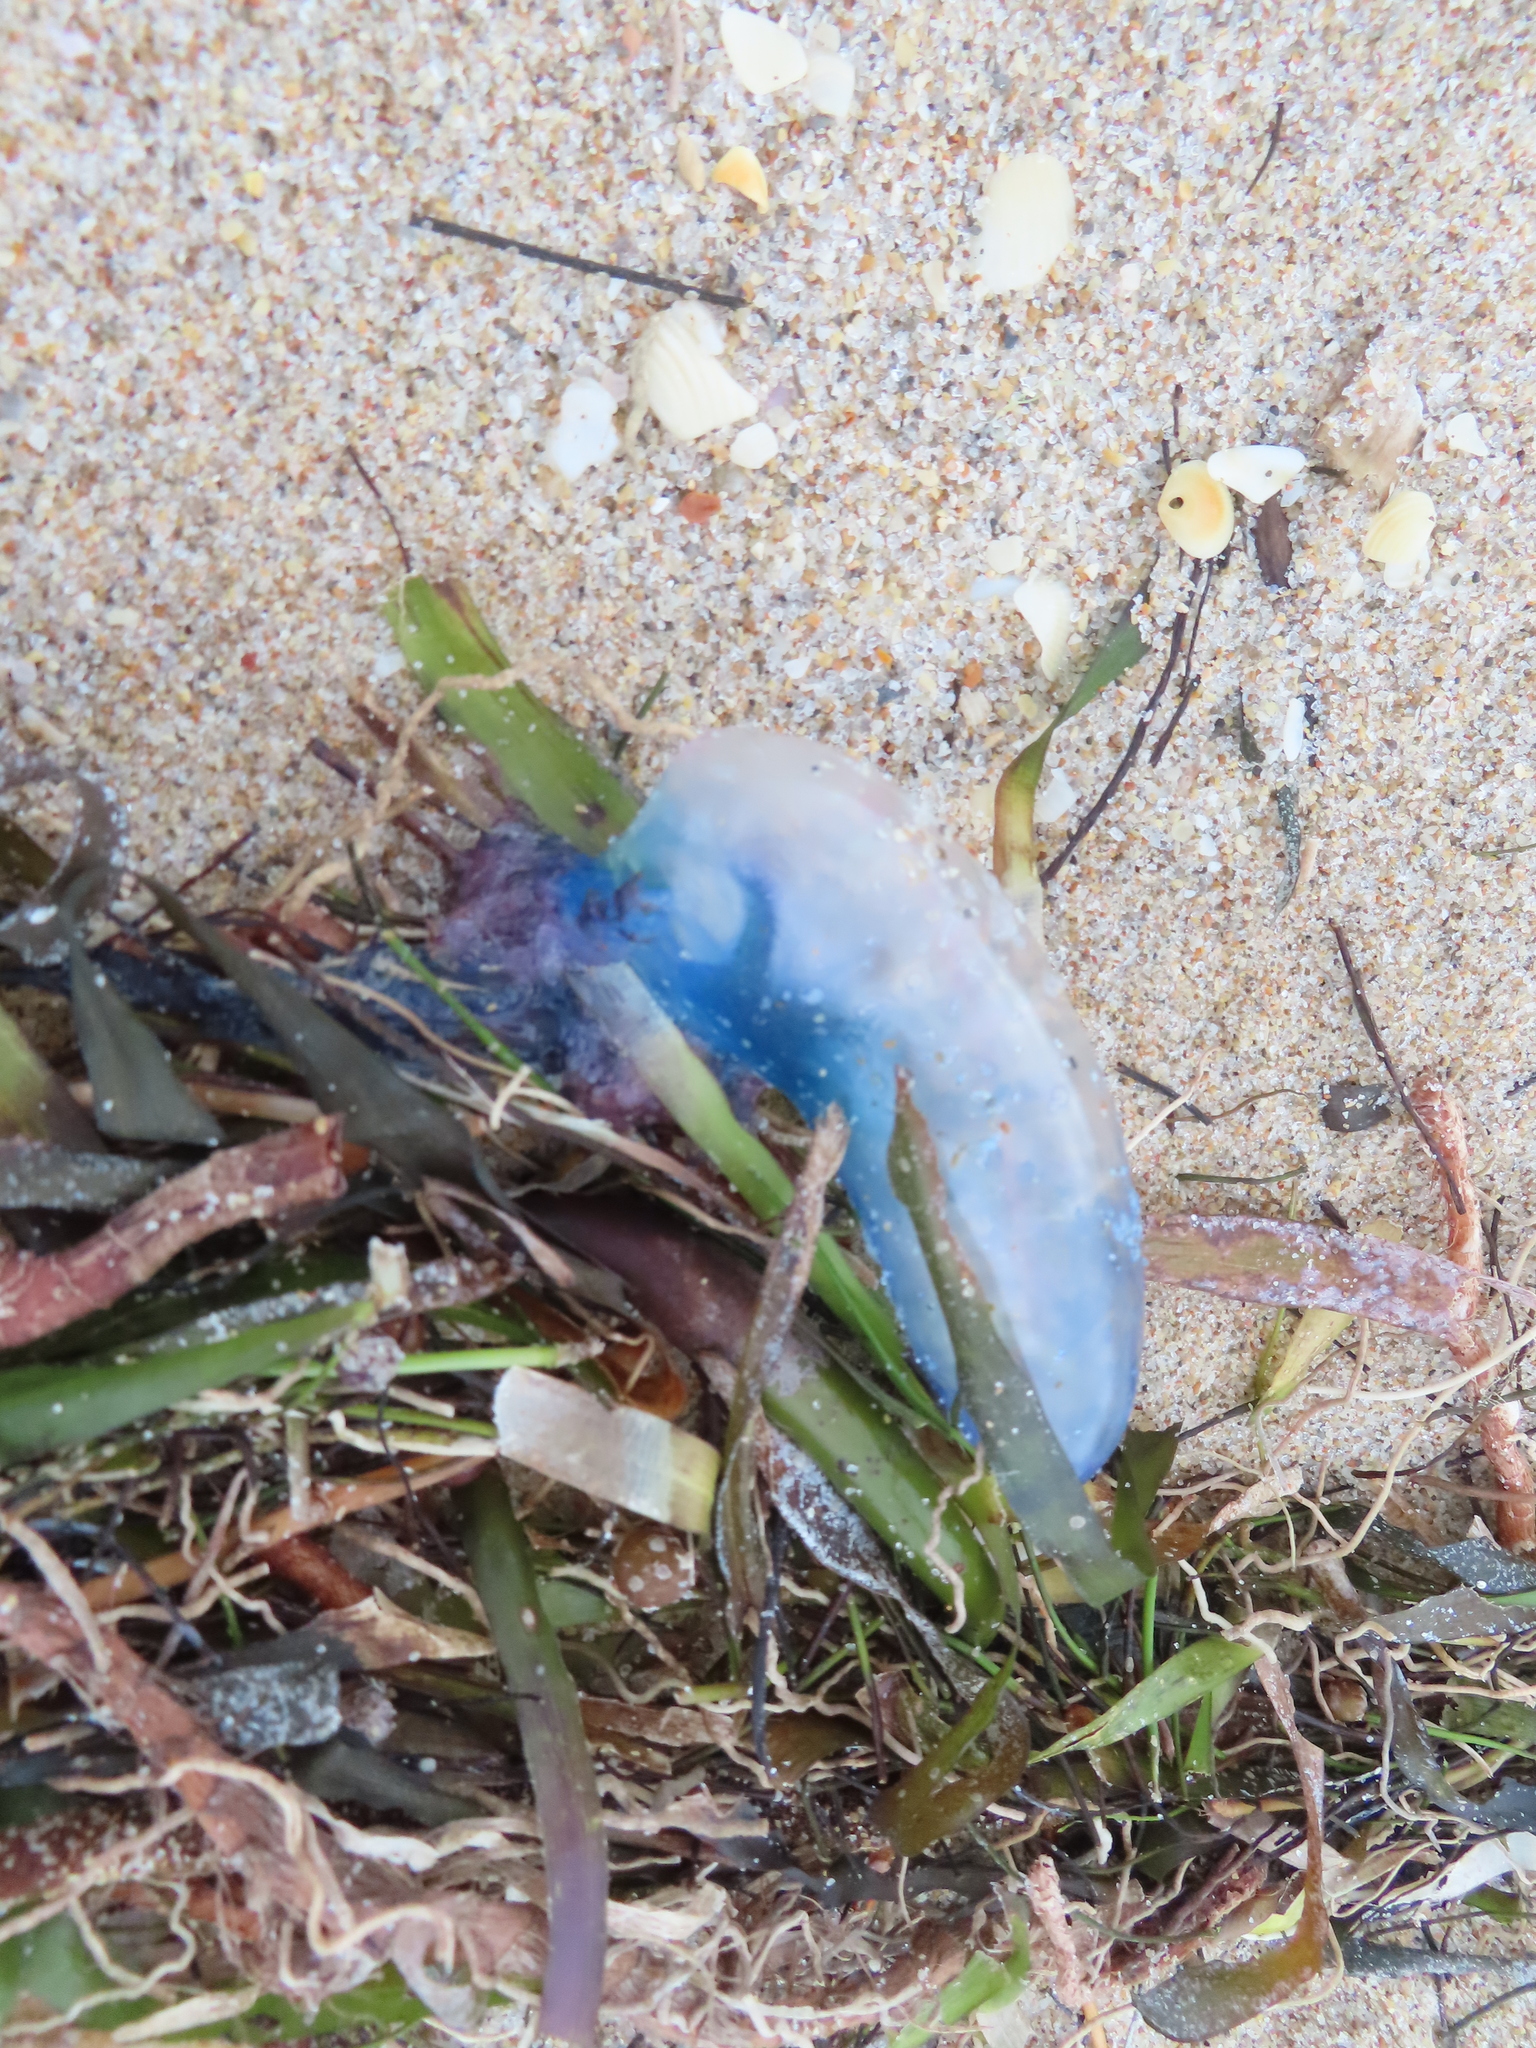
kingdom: Animalia
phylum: Cnidaria
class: Hydrozoa
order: Siphonophorae
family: Physaliidae
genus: Physalia
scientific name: Physalia physalis
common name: Portuguese man-of-war
